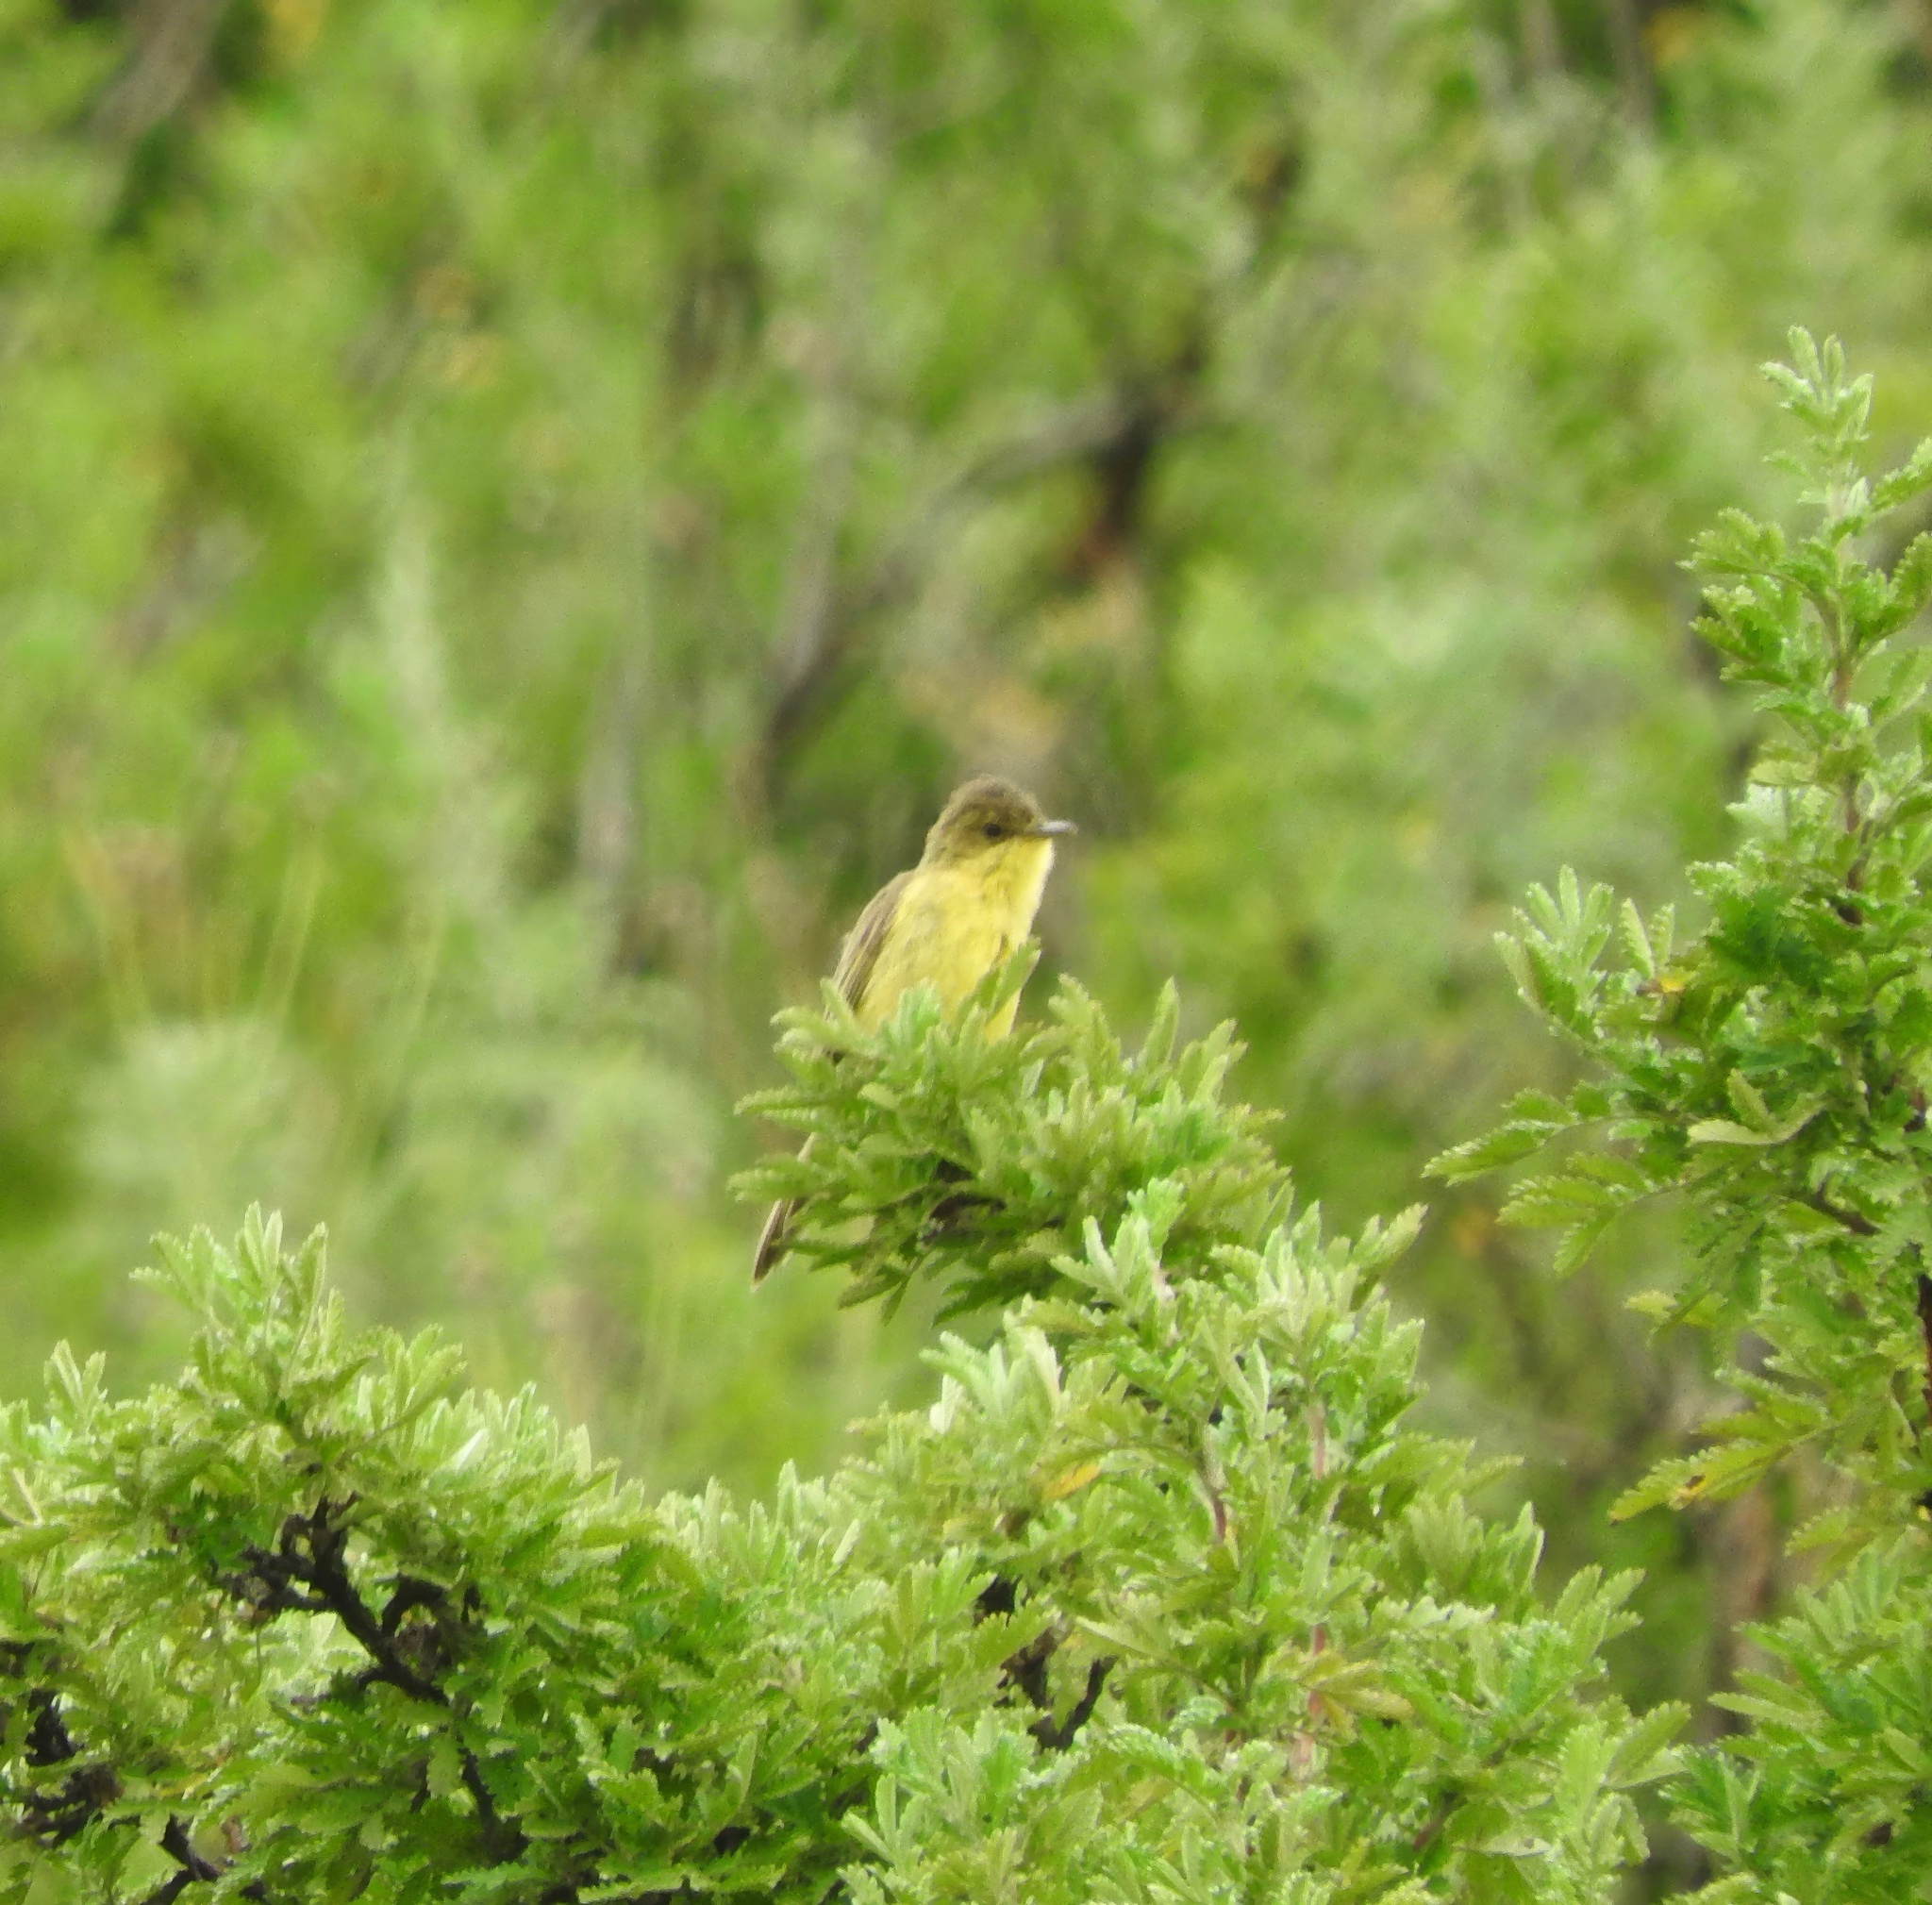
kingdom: Animalia
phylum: Chordata
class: Aves
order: Passeriformes
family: Acrocephalidae
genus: Iduna
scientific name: Iduna natalensis
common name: African yellow warbler
